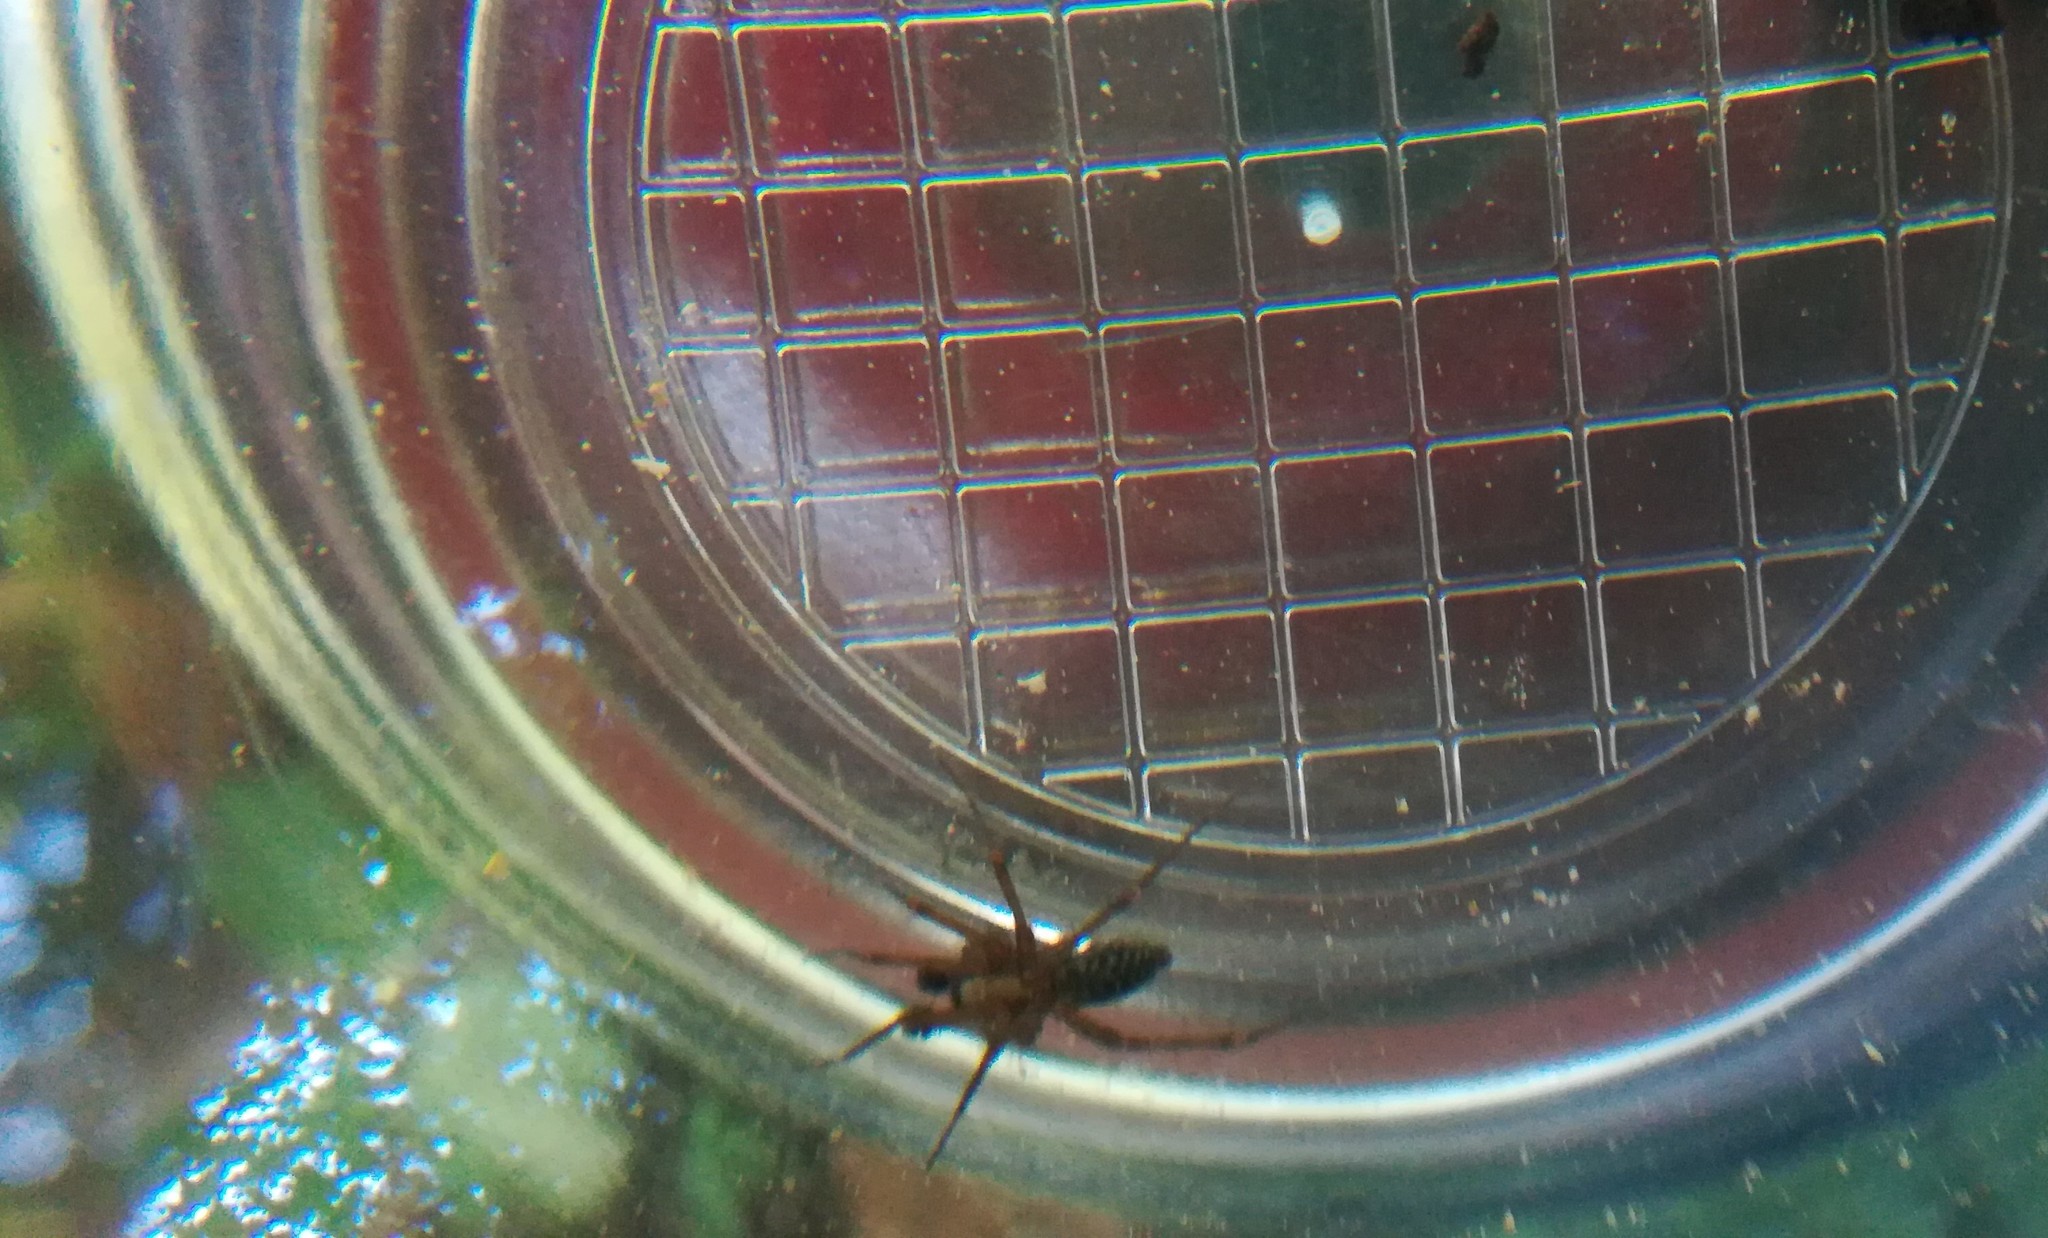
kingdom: Animalia
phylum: Arthropoda
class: Arachnida
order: Araneae
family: Agelenidae
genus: Histopona
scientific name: Histopona torpida
